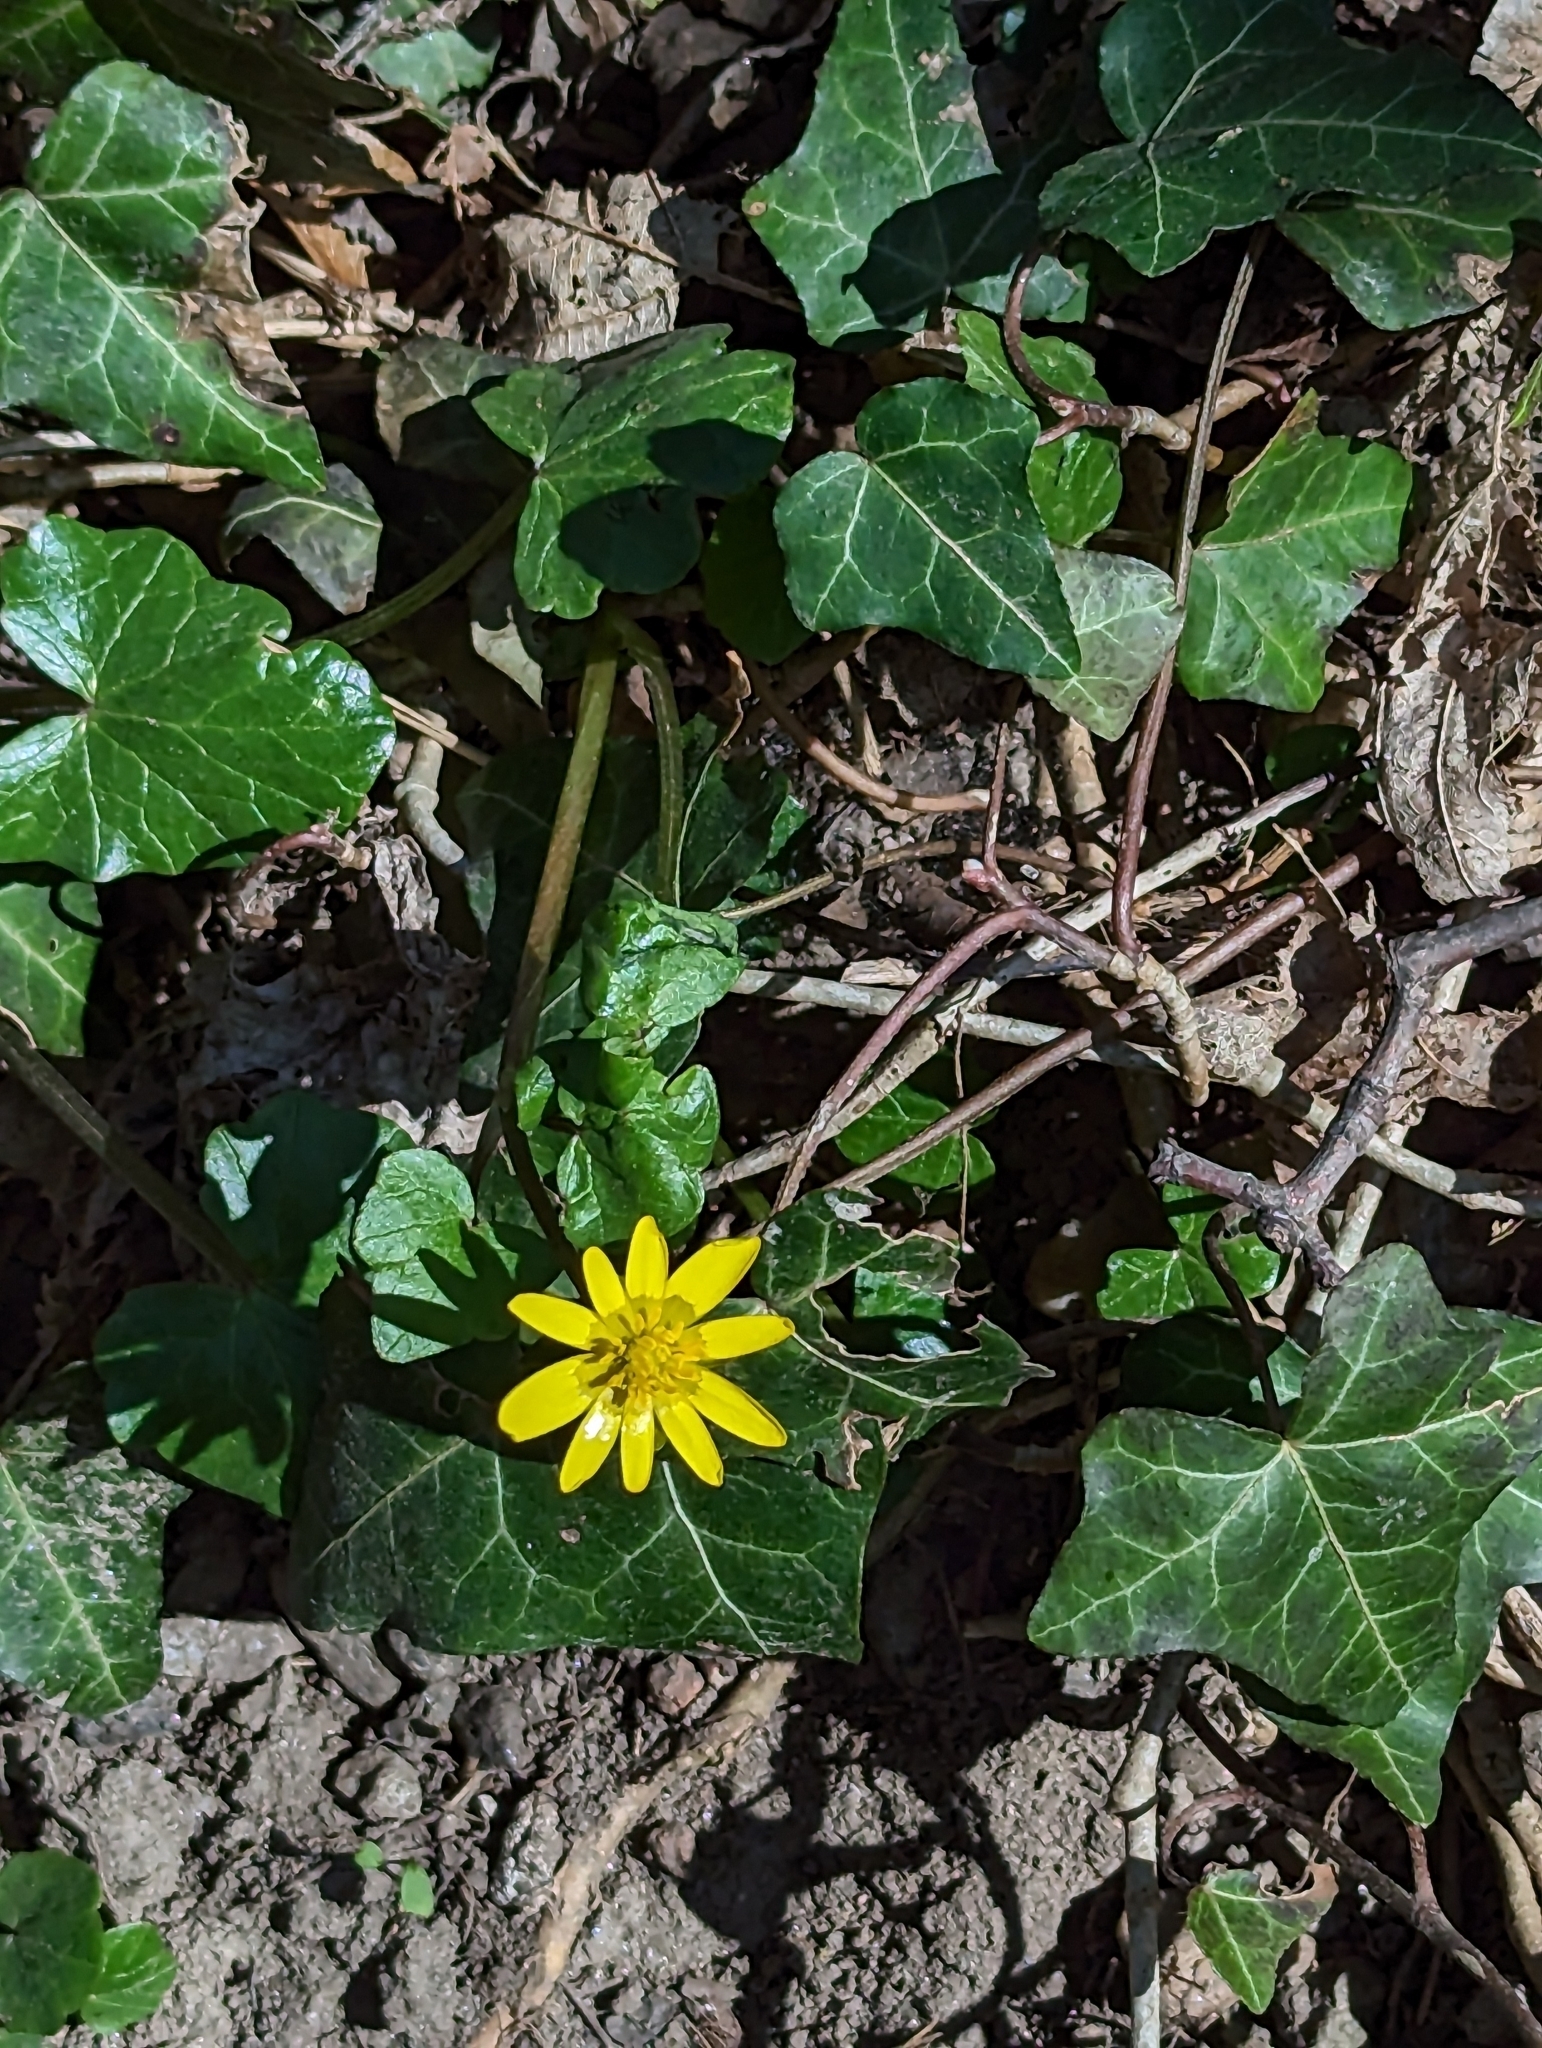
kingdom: Plantae
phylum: Tracheophyta
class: Magnoliopsida
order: Ranunculales
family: Ranunculaceae
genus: Ficaria
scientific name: Ficaria verna
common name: Lesser celandine
